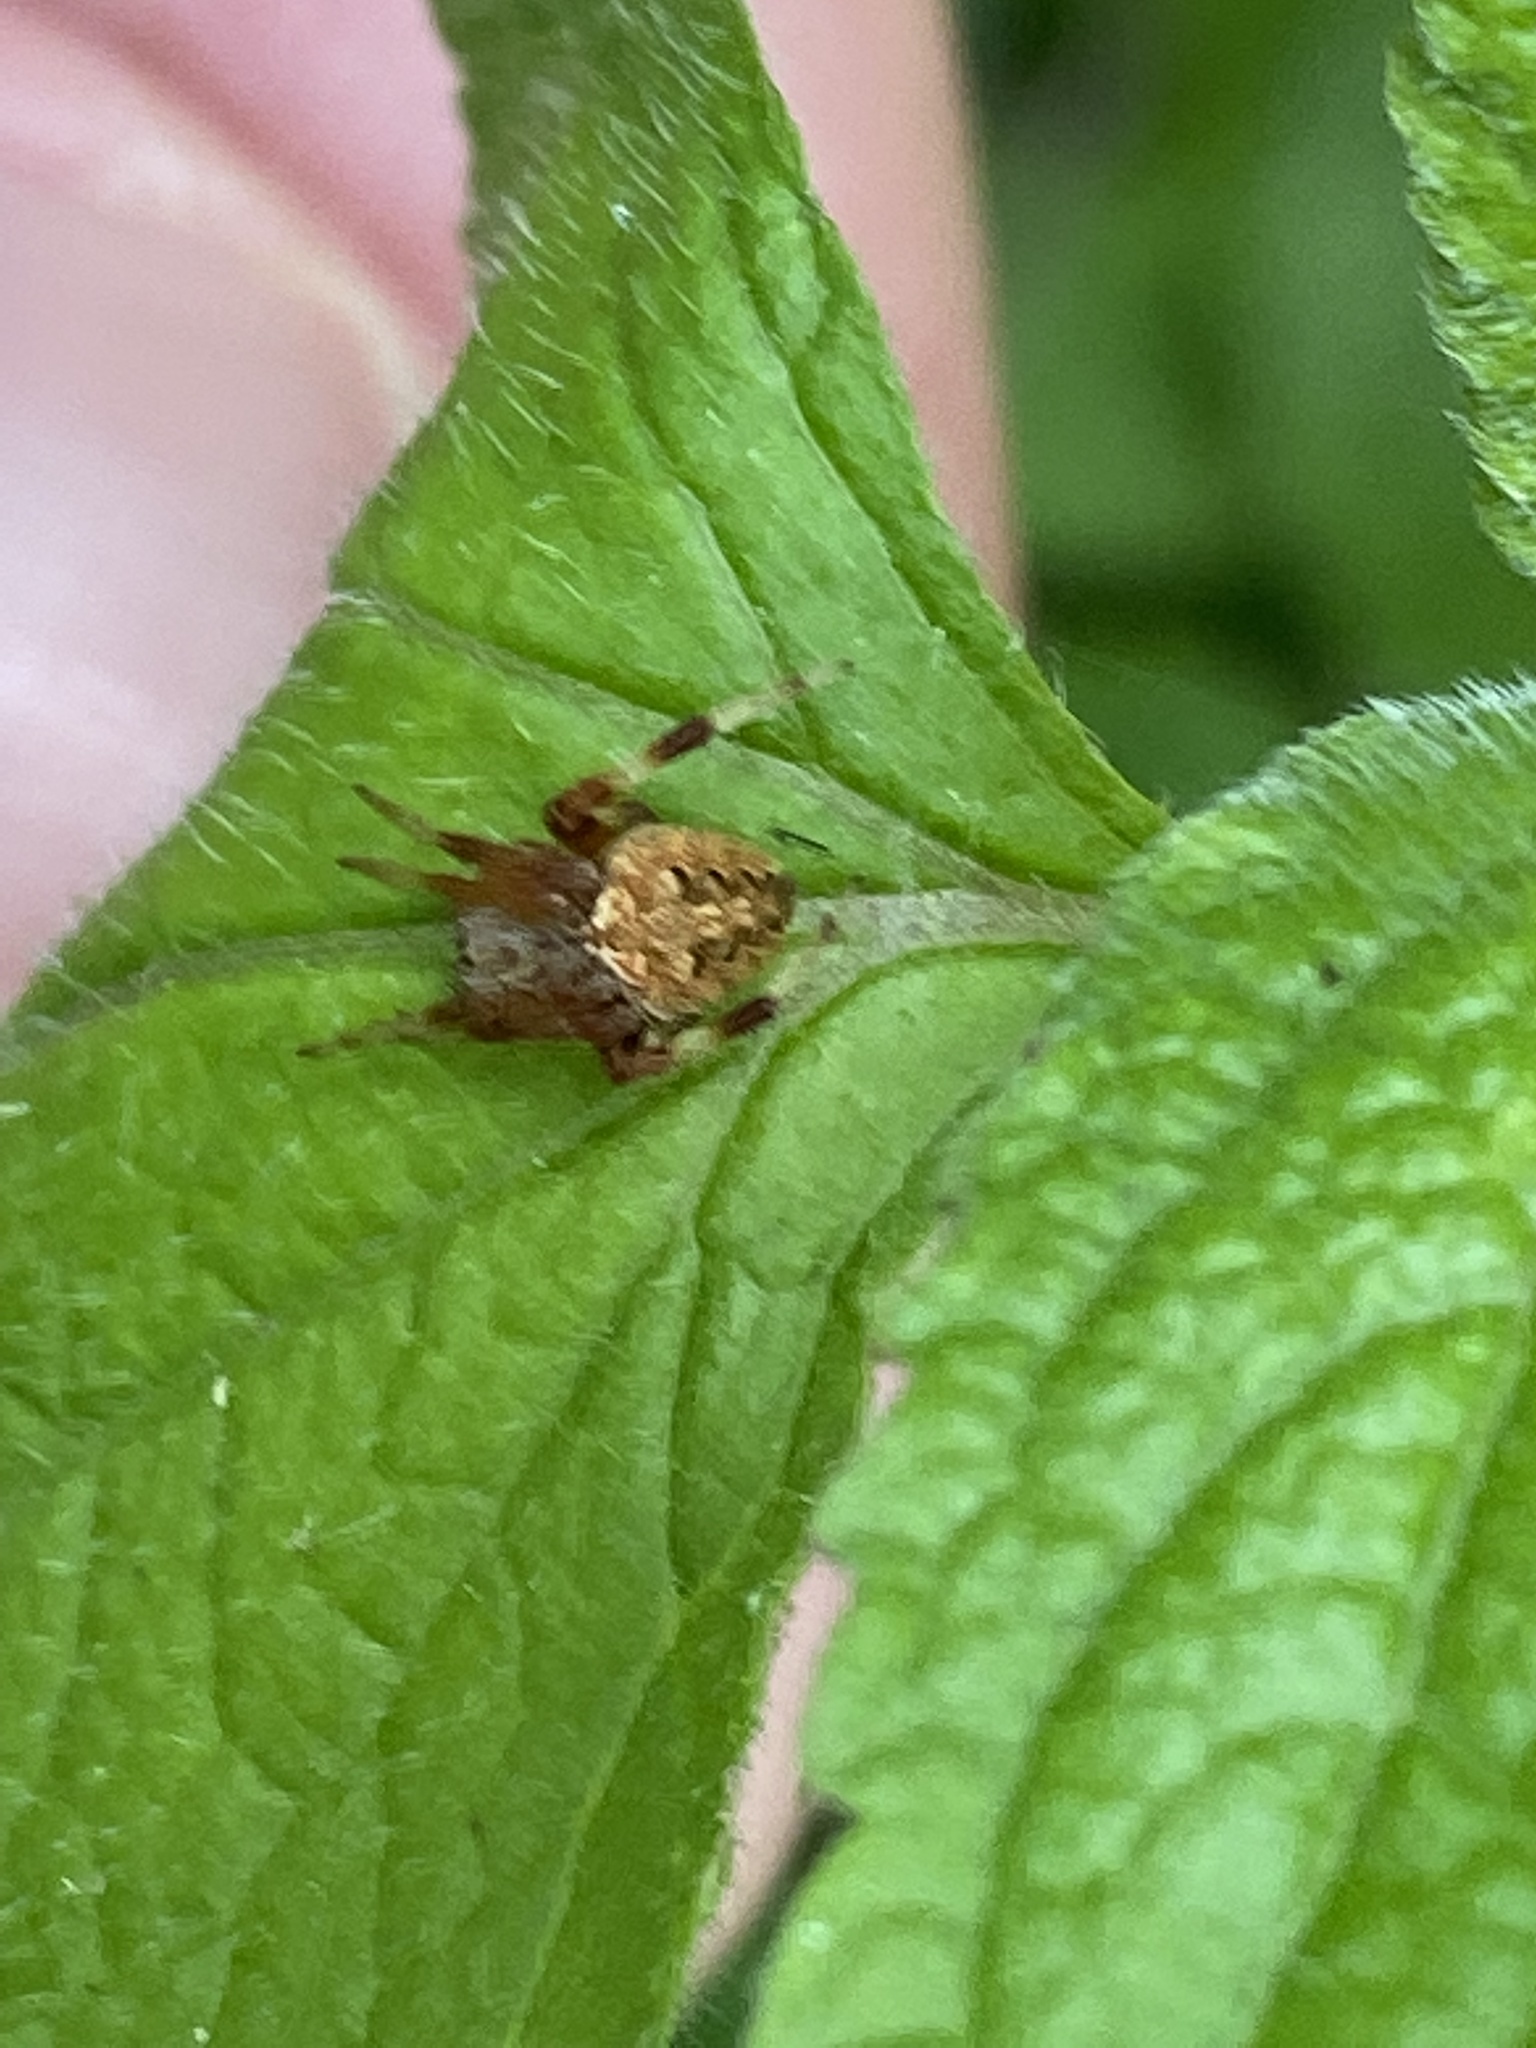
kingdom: Animalia
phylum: Arthropoda
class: Arachnida
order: Araneae
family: Araneidae
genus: Neoscona
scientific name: Neoscona arabesca
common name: Orb weavers
